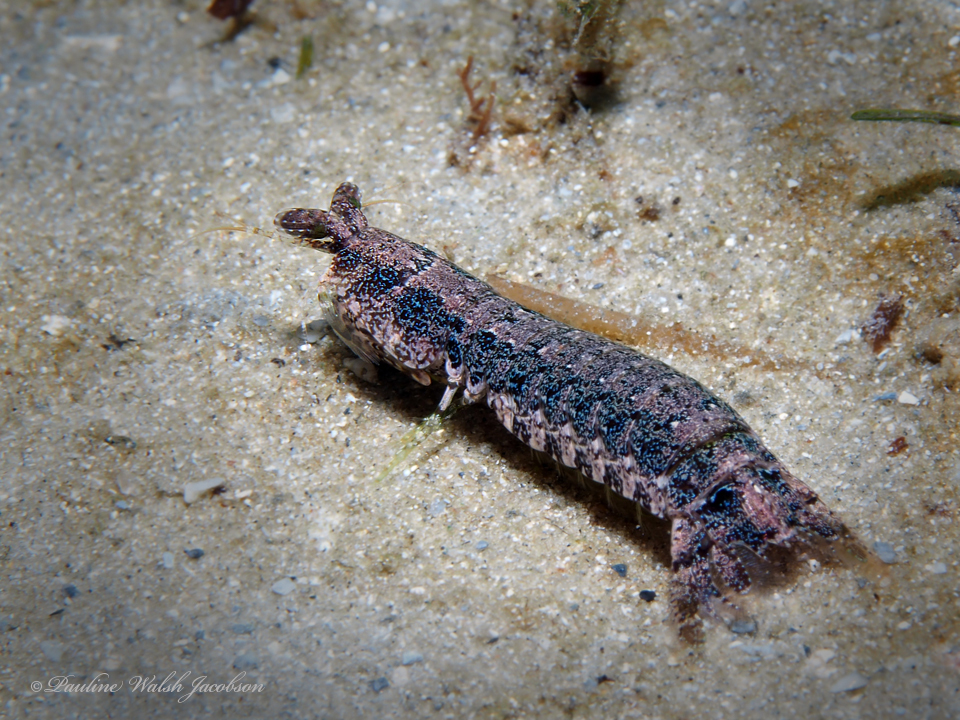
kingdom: Animalia
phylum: Arthropoda
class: Malacostraca
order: Stomatopoda
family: Pseudosquillidae
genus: Pseudosquilla
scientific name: Pseudosquilla ciliata
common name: Ciliated false squilla
